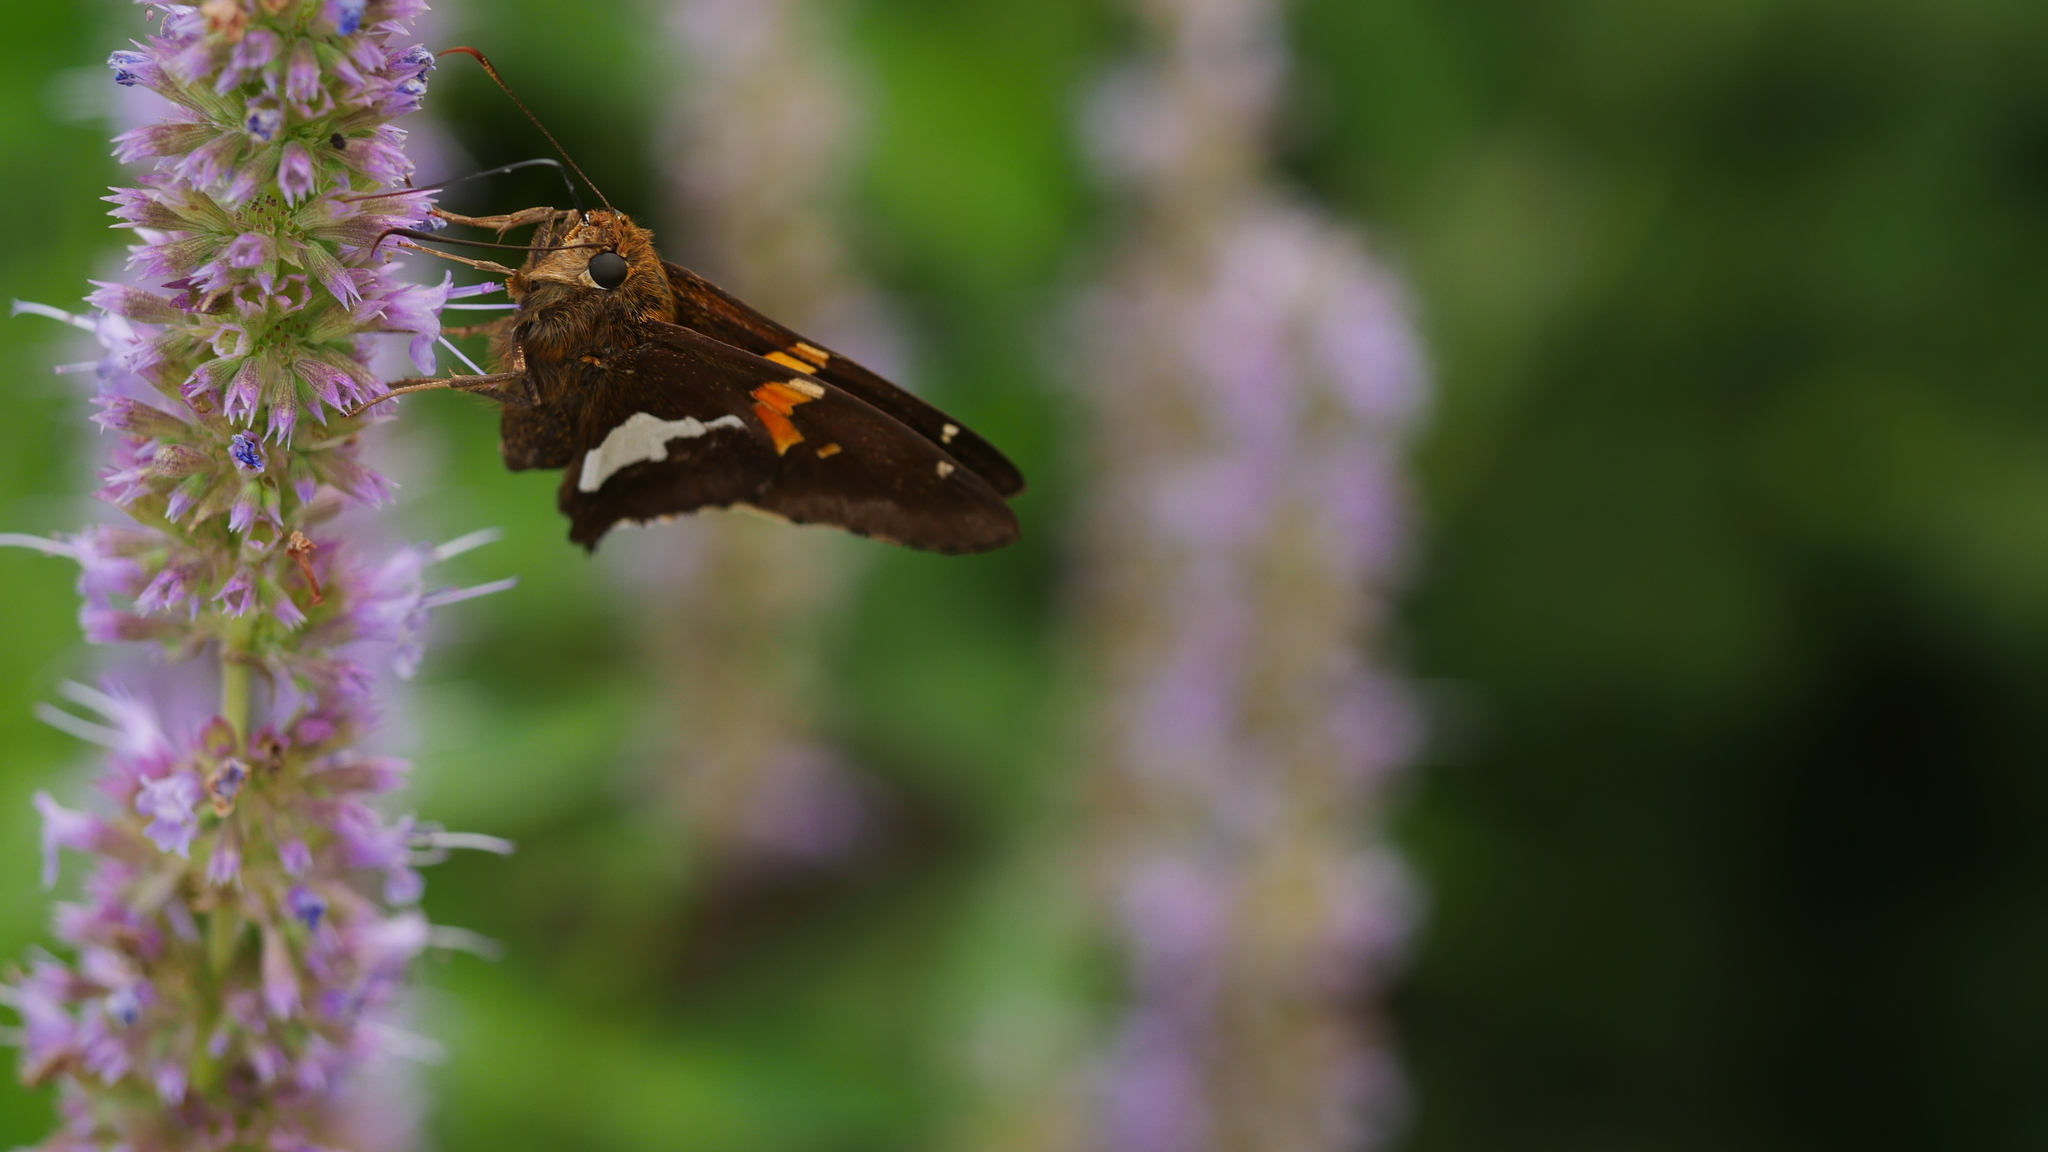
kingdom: Animalia
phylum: Arthropoda
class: Insecta
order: Lepidoptera
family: Hesperiidae
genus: Epargyreus
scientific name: Epargyreus clarus
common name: Silver-spotted skipper
